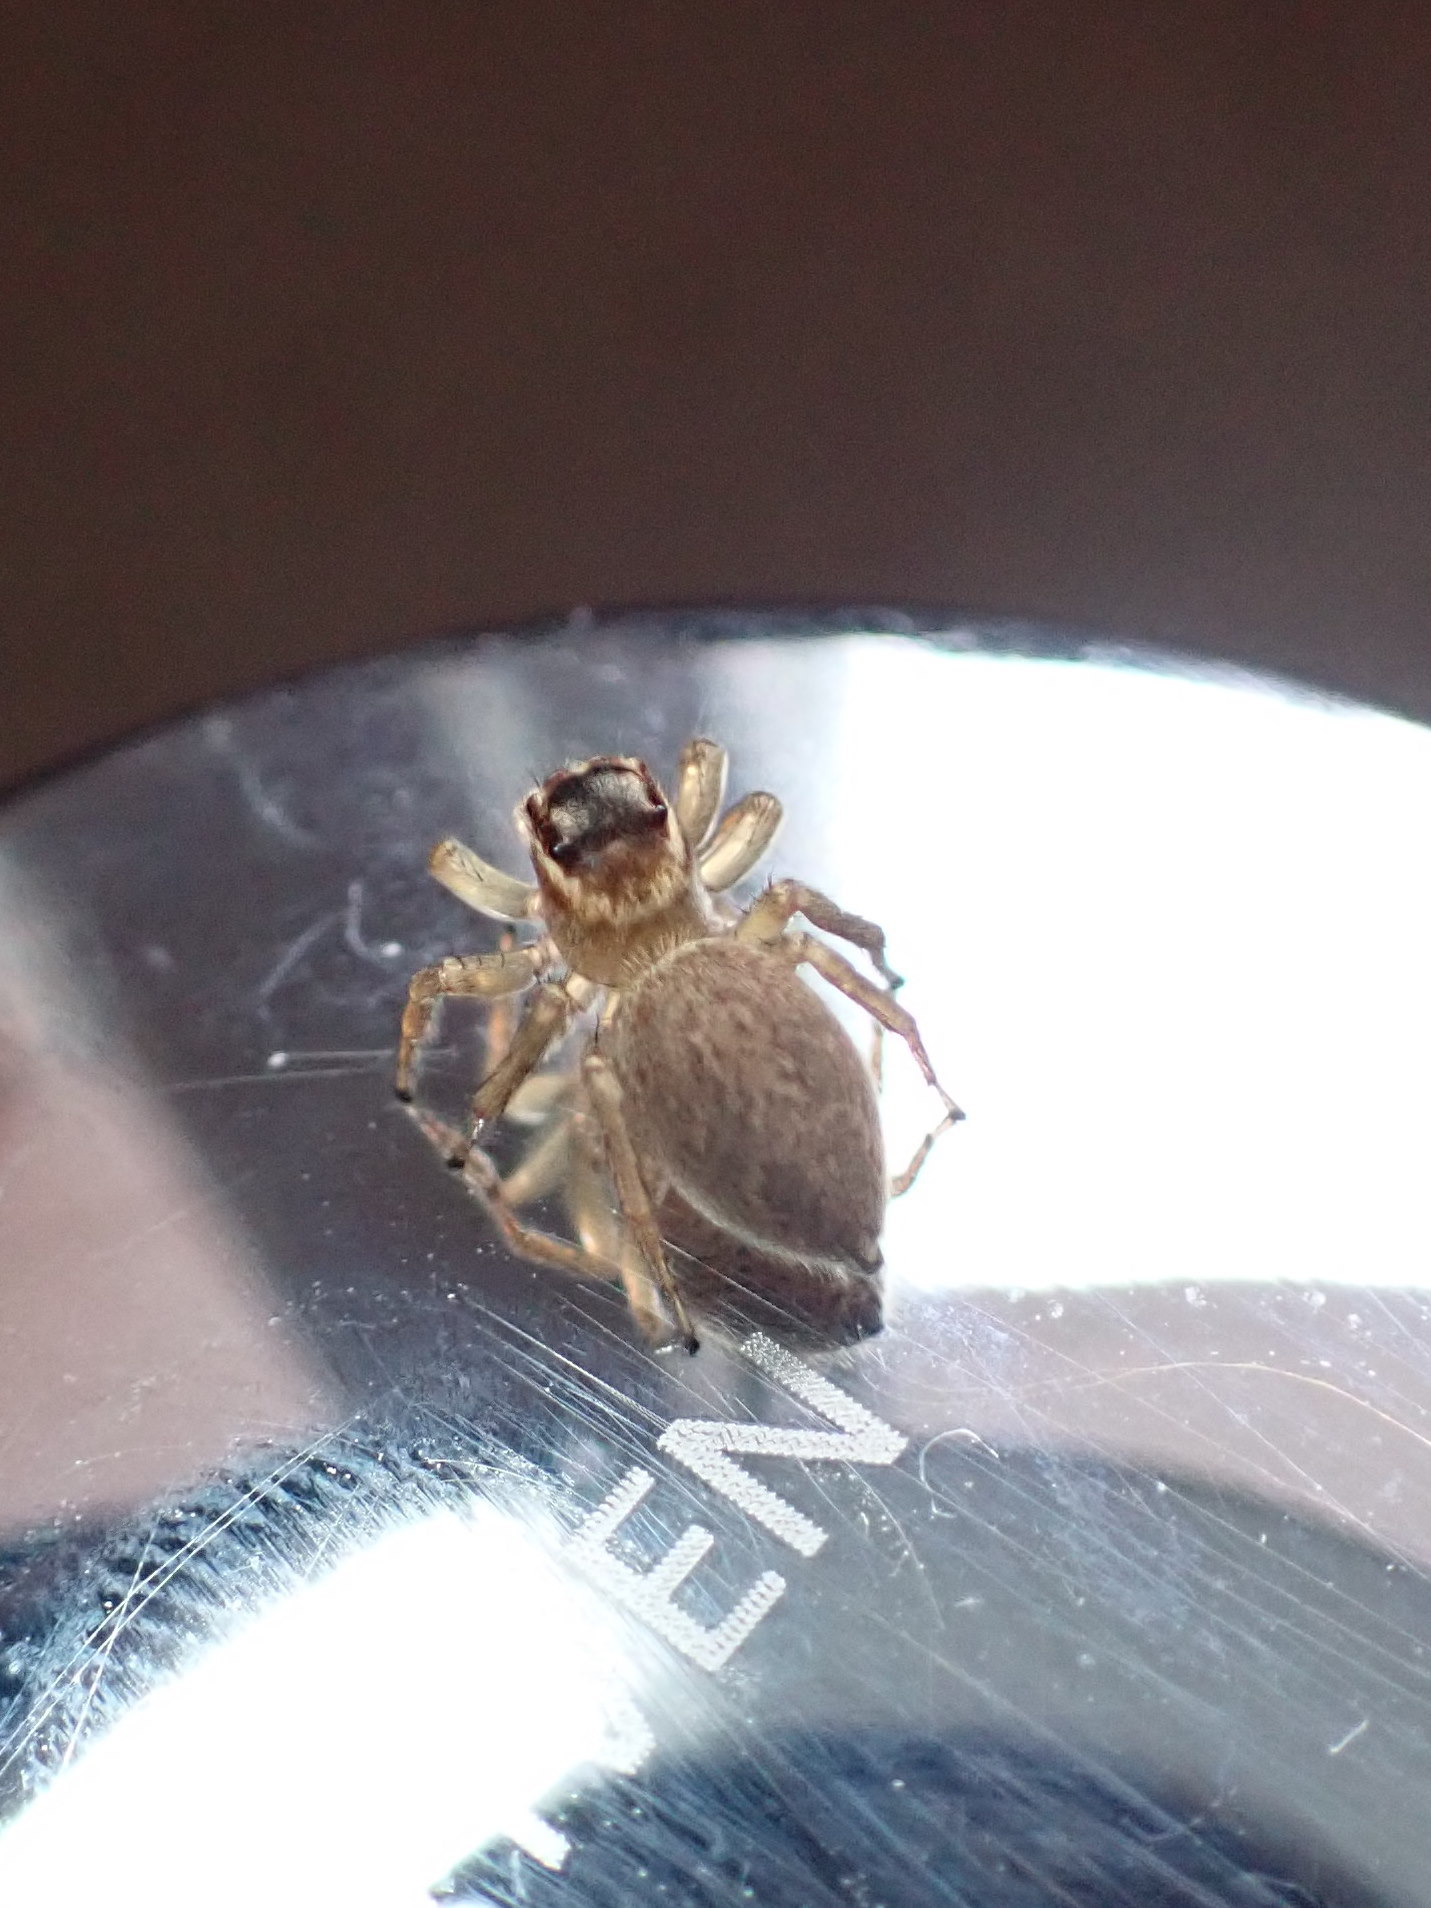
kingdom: Animalia
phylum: Arthropoda
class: Arachnida
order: Araneae
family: Salticidae
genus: Maratus
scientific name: Maratus griseus
